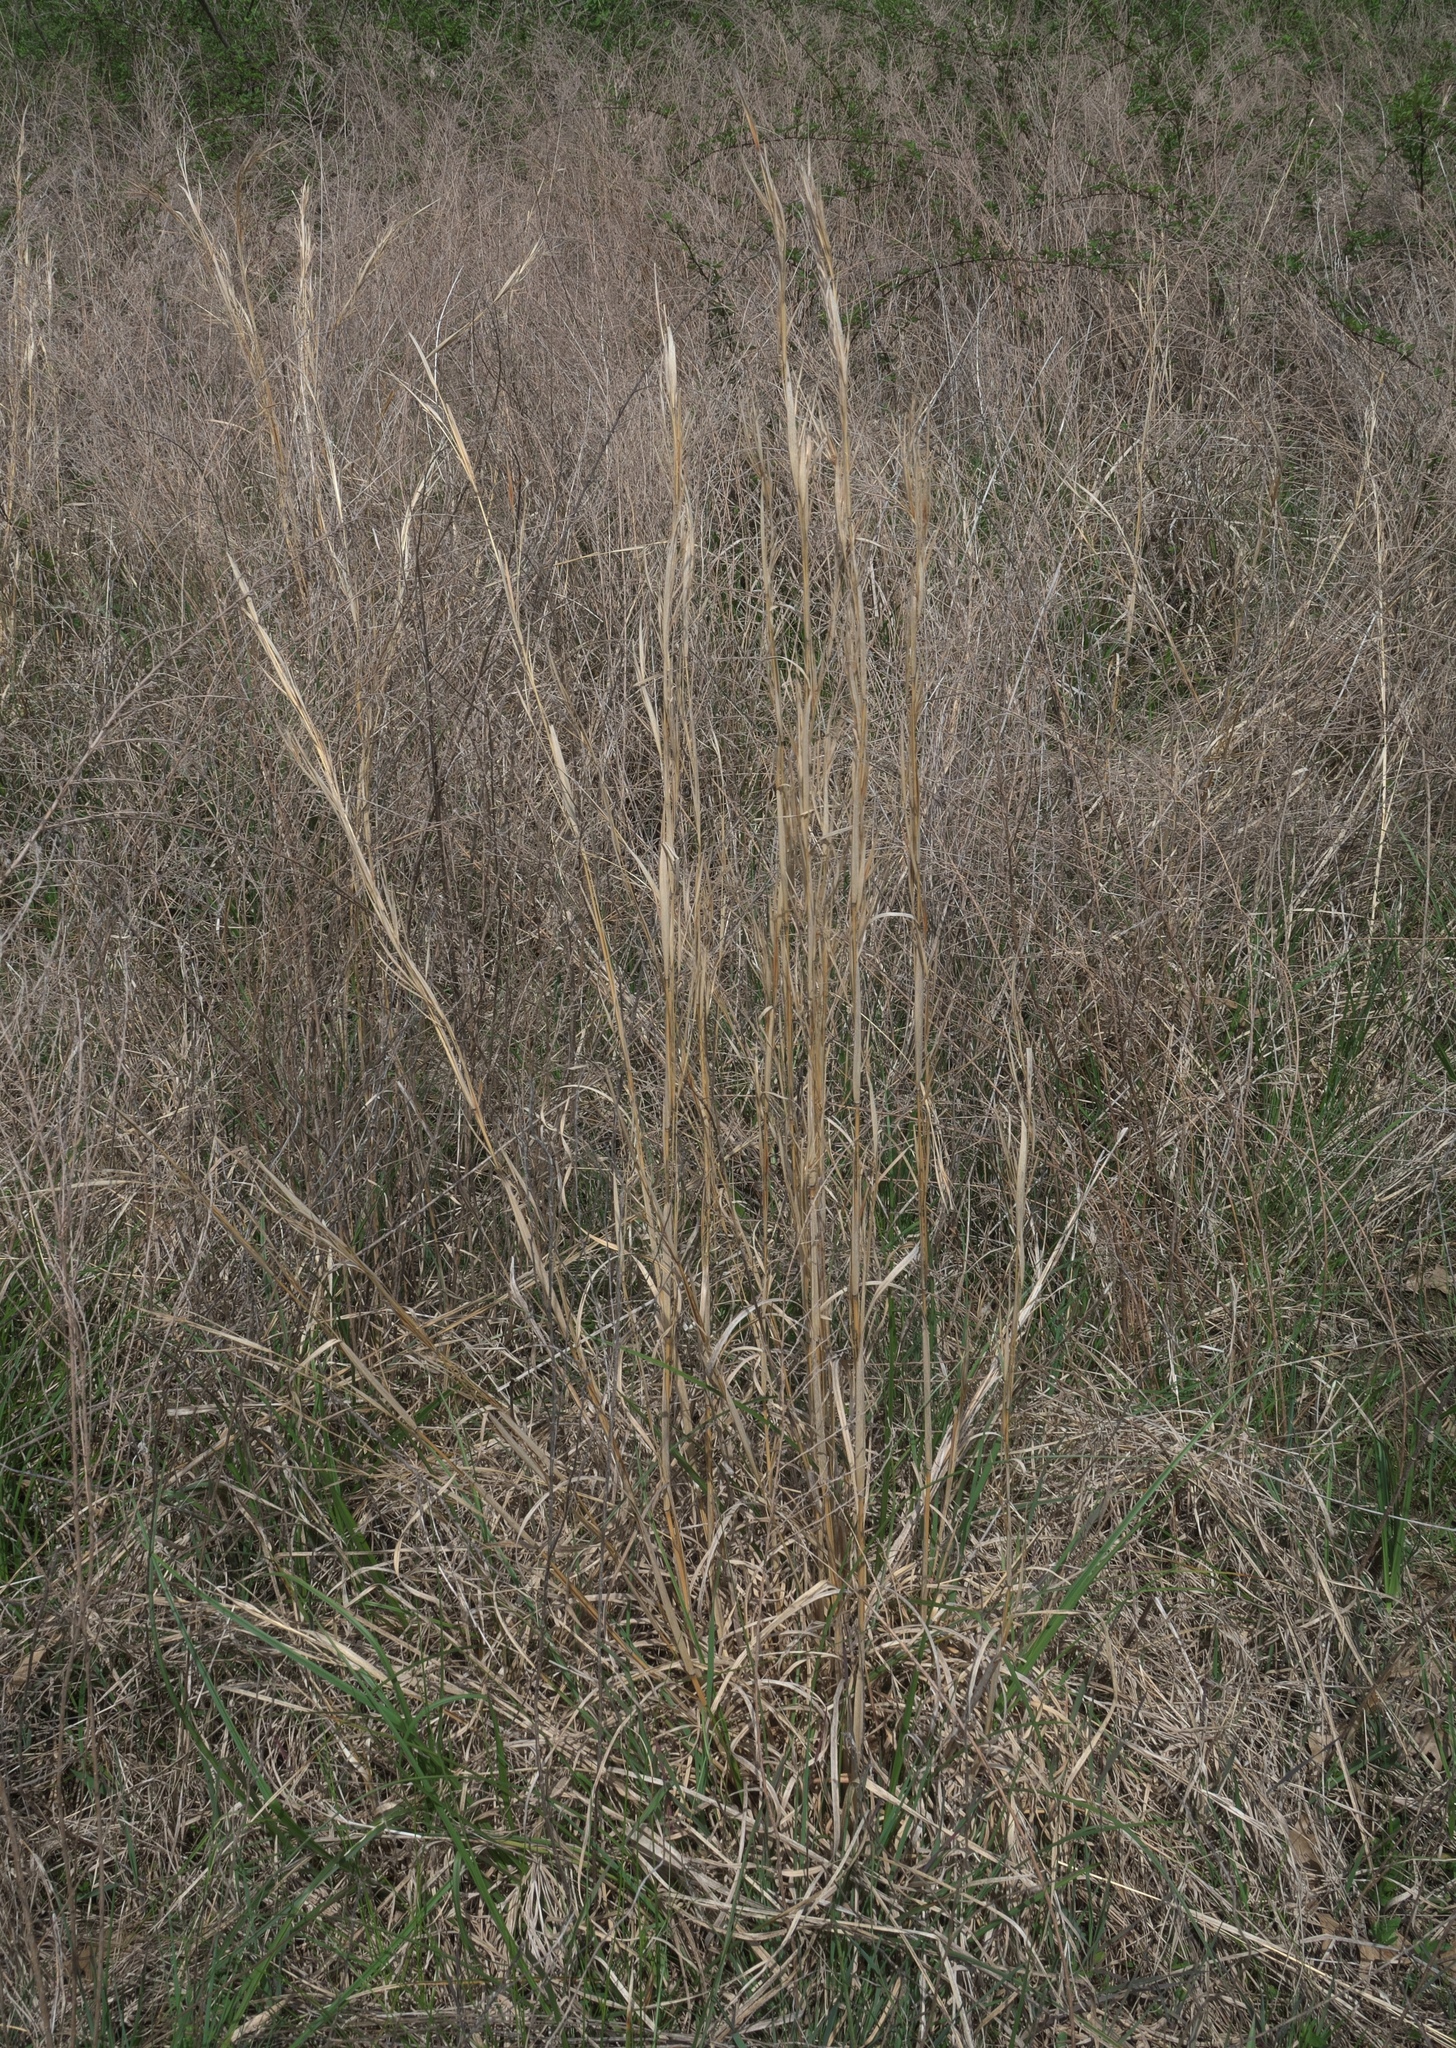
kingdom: Plantae
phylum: Tracheophyta
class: Liliopsida
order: Poales
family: Poaceae
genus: Andropogon
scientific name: Andropogon virginicus
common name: Broomsedge bluestem
